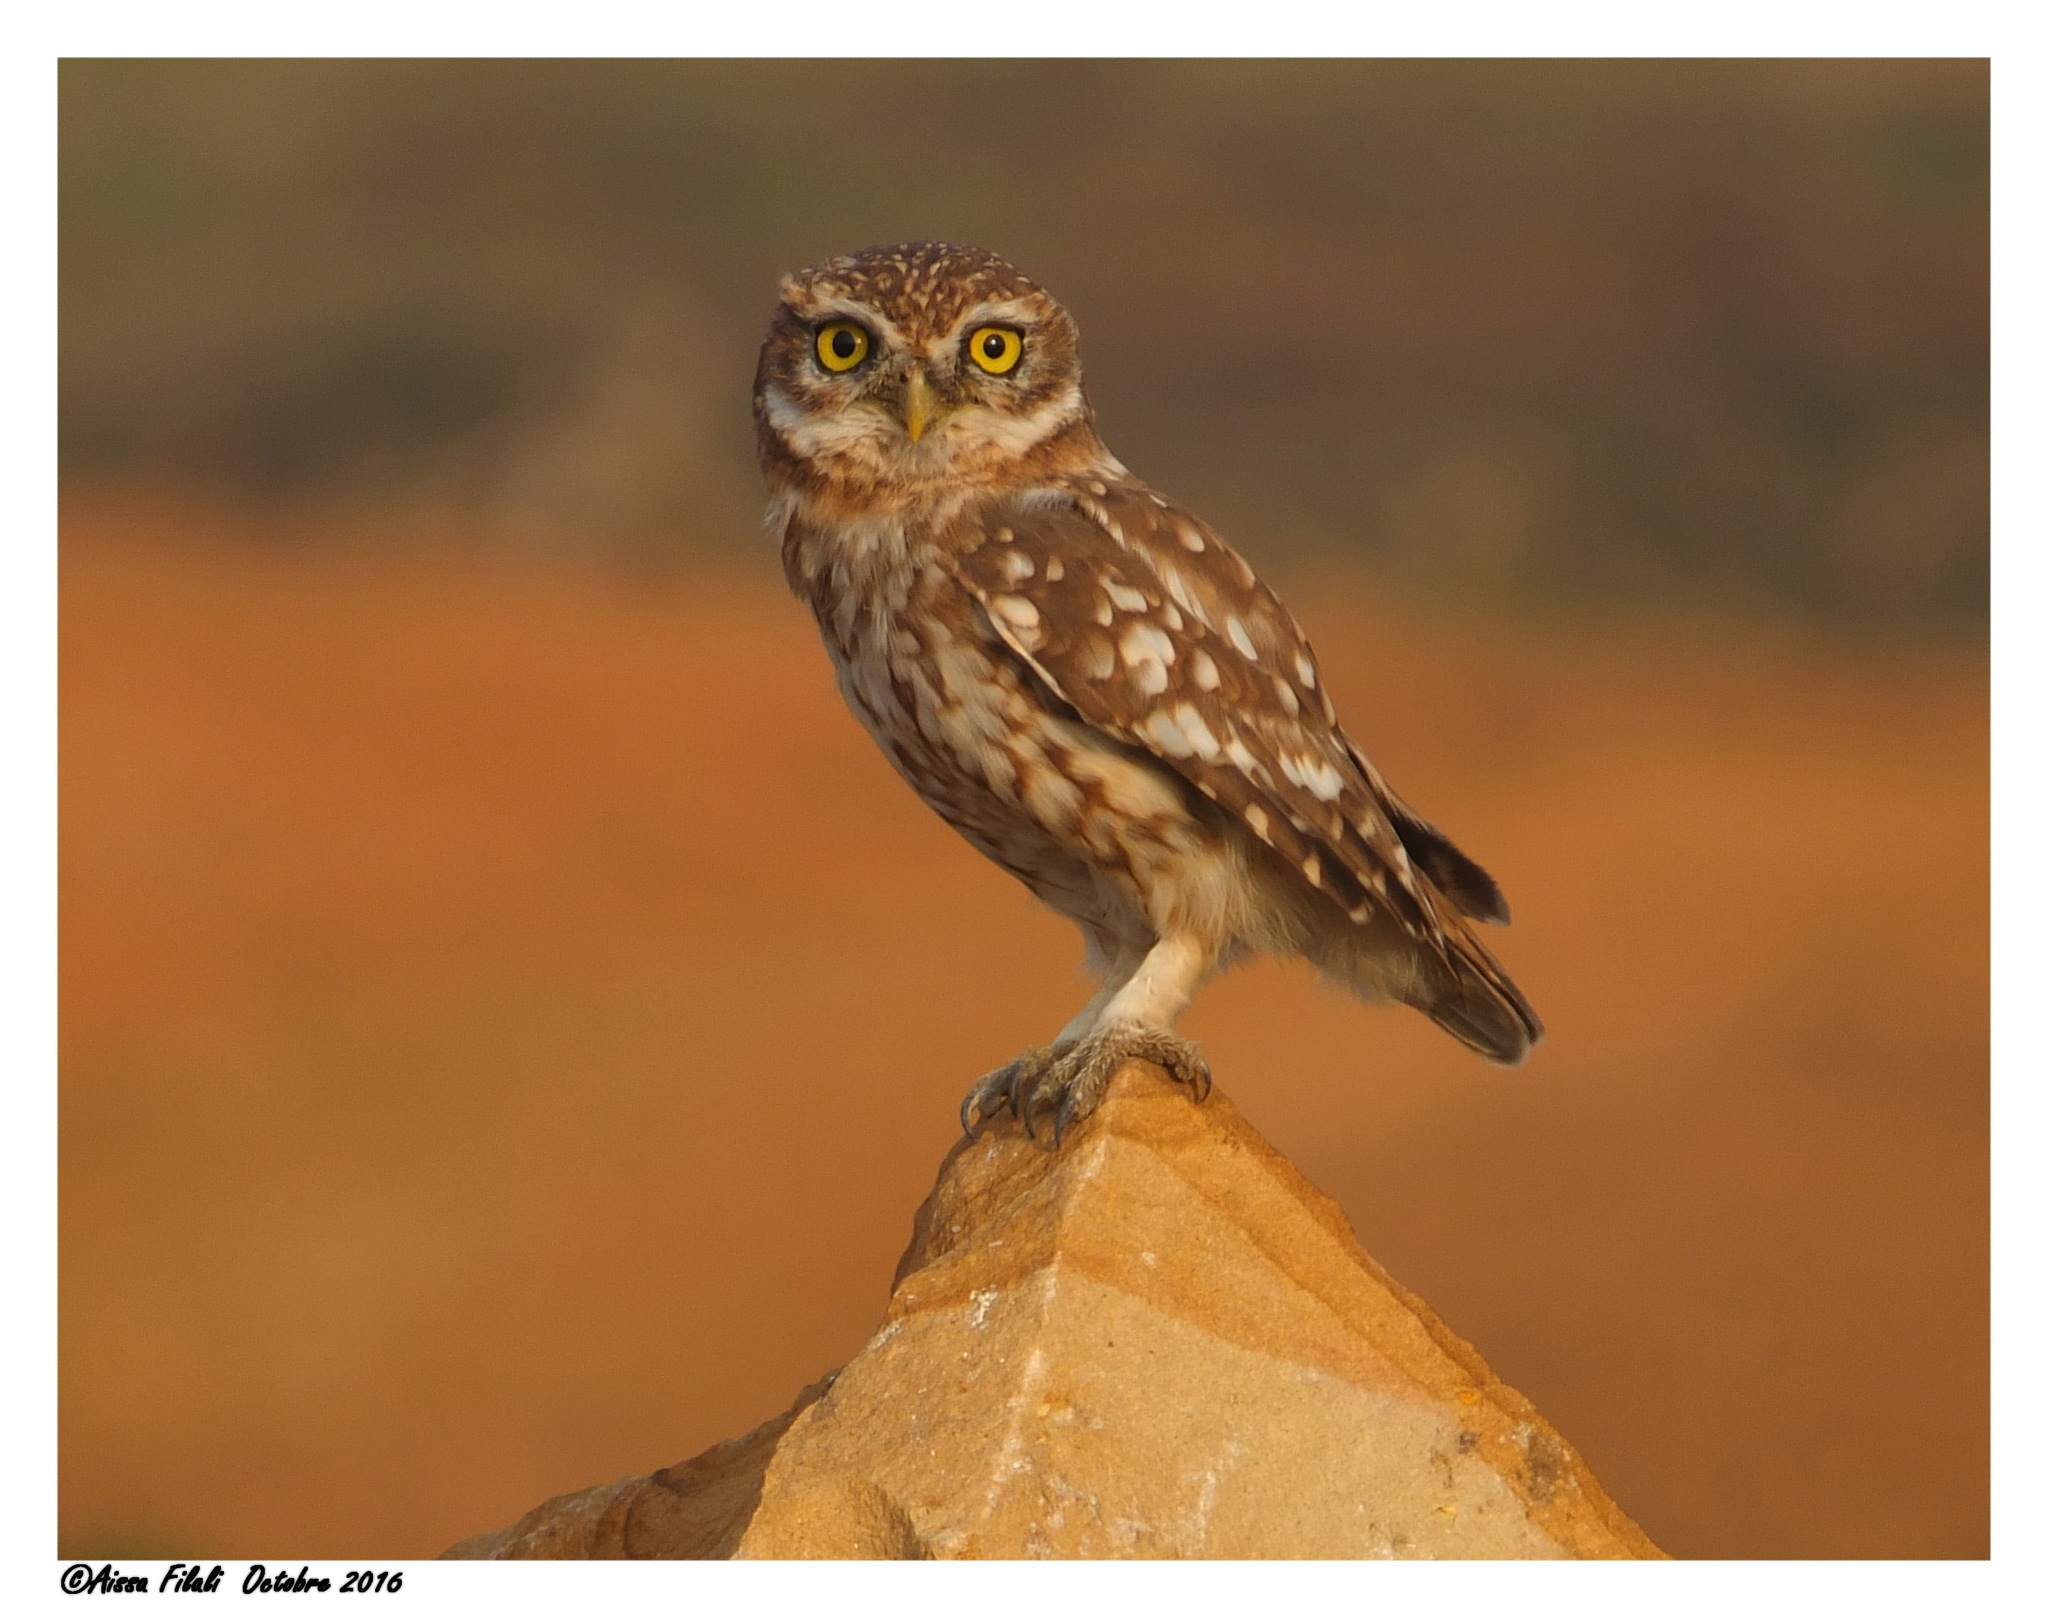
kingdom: Animalia
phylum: Chordata
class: Aves
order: Strigiformes
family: Strigidae
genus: Athene
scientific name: Athene noctua
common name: Little owl
